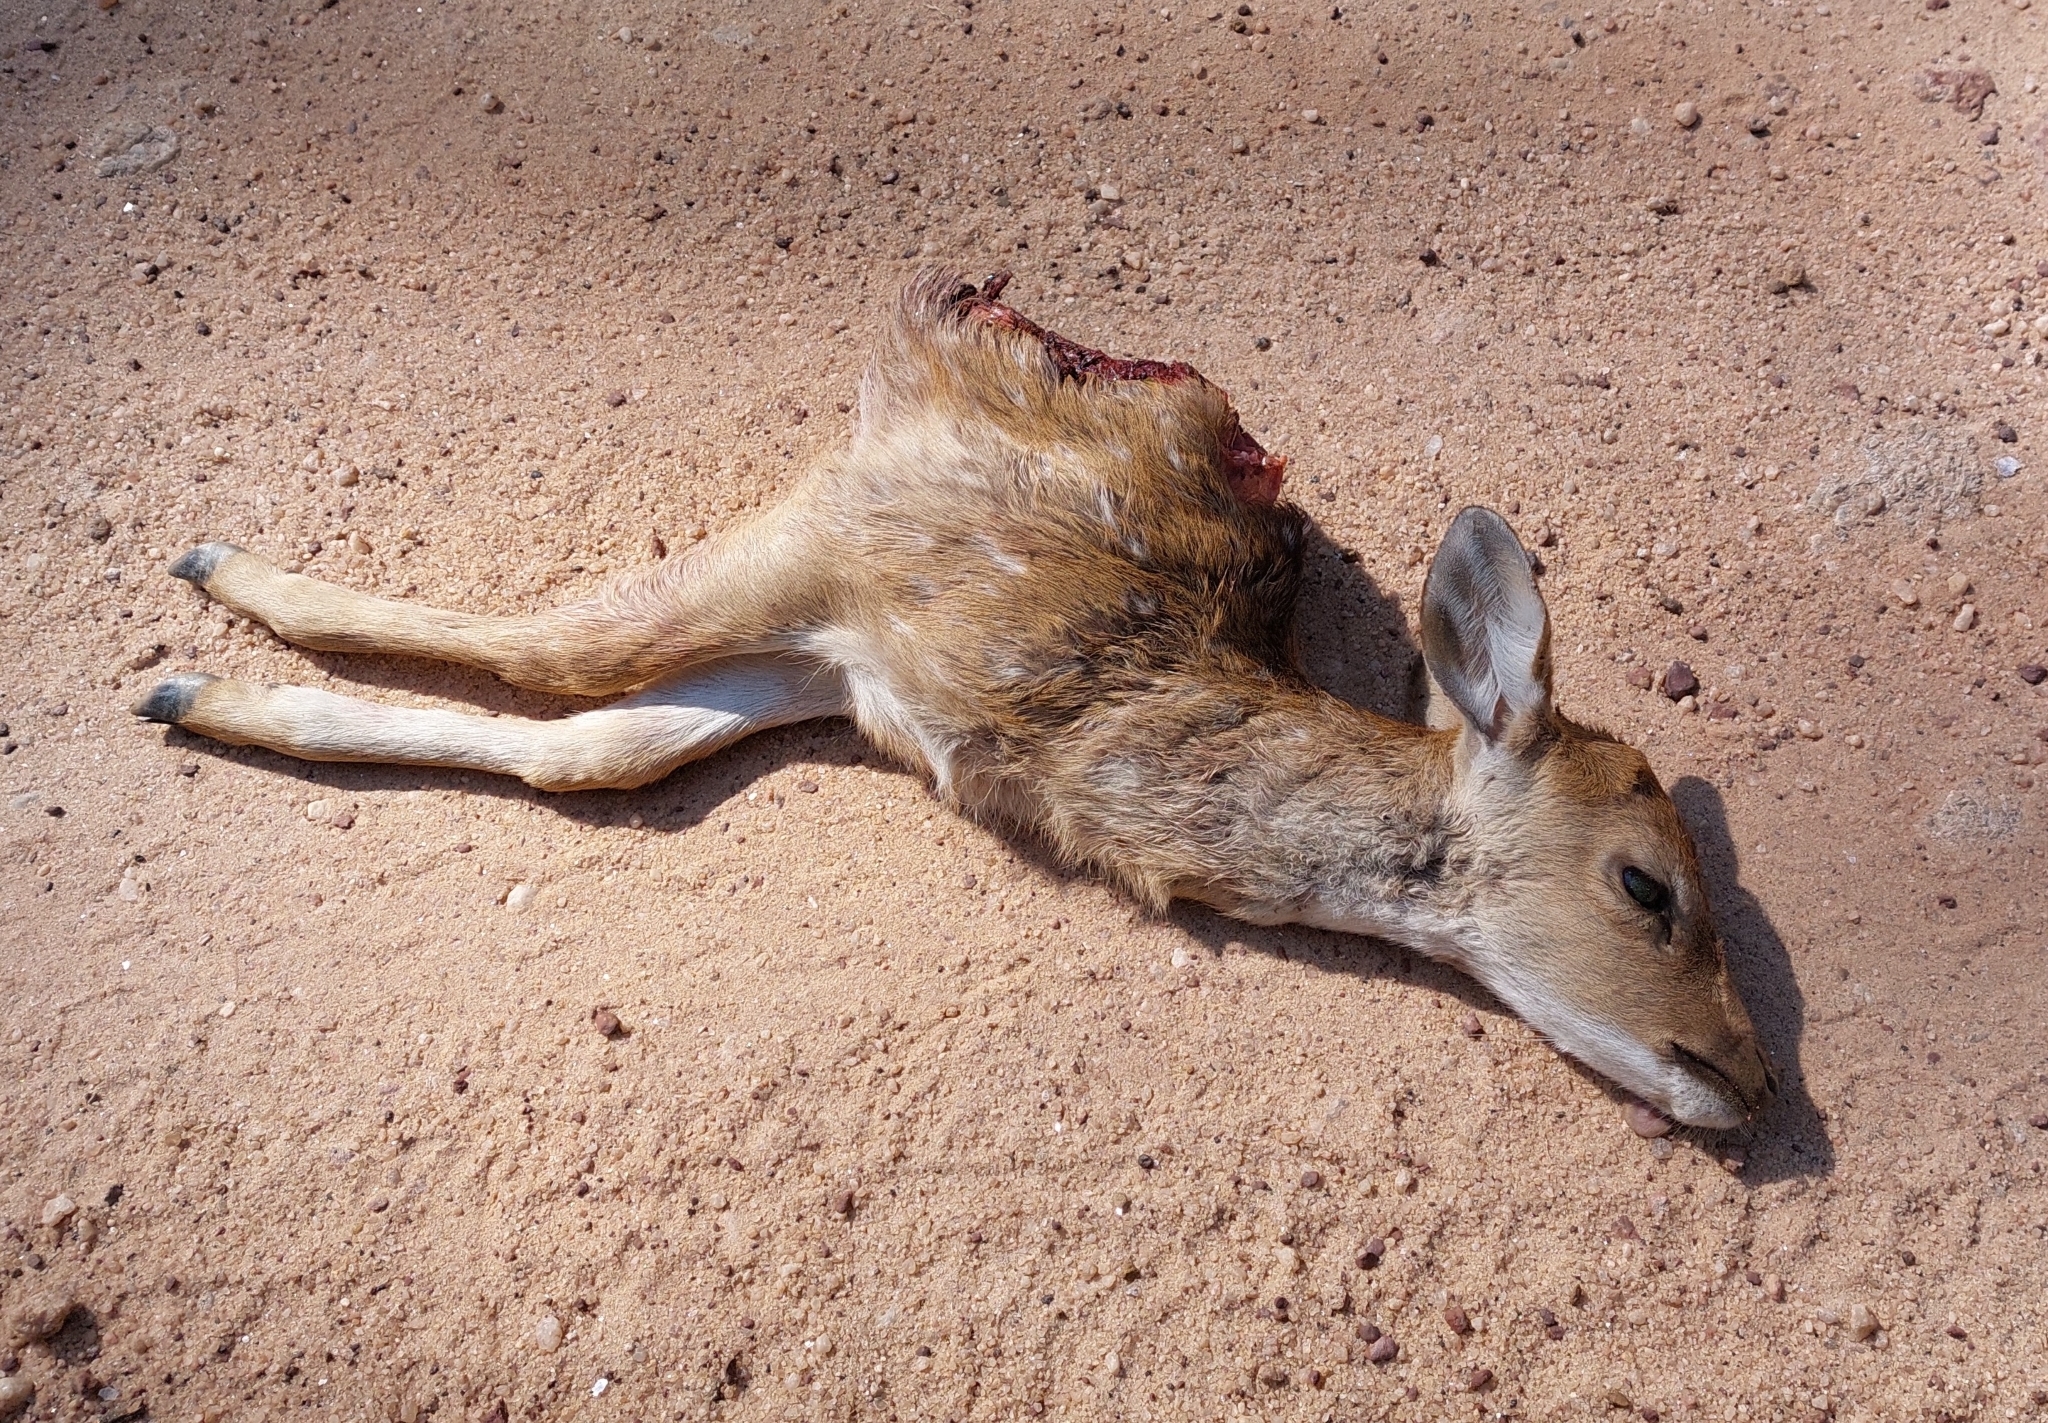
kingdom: Animalia
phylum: Chordata
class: Mammalia
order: Artiodactyla
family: Cervidae
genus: Axis
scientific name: Axis axis
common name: Chital
